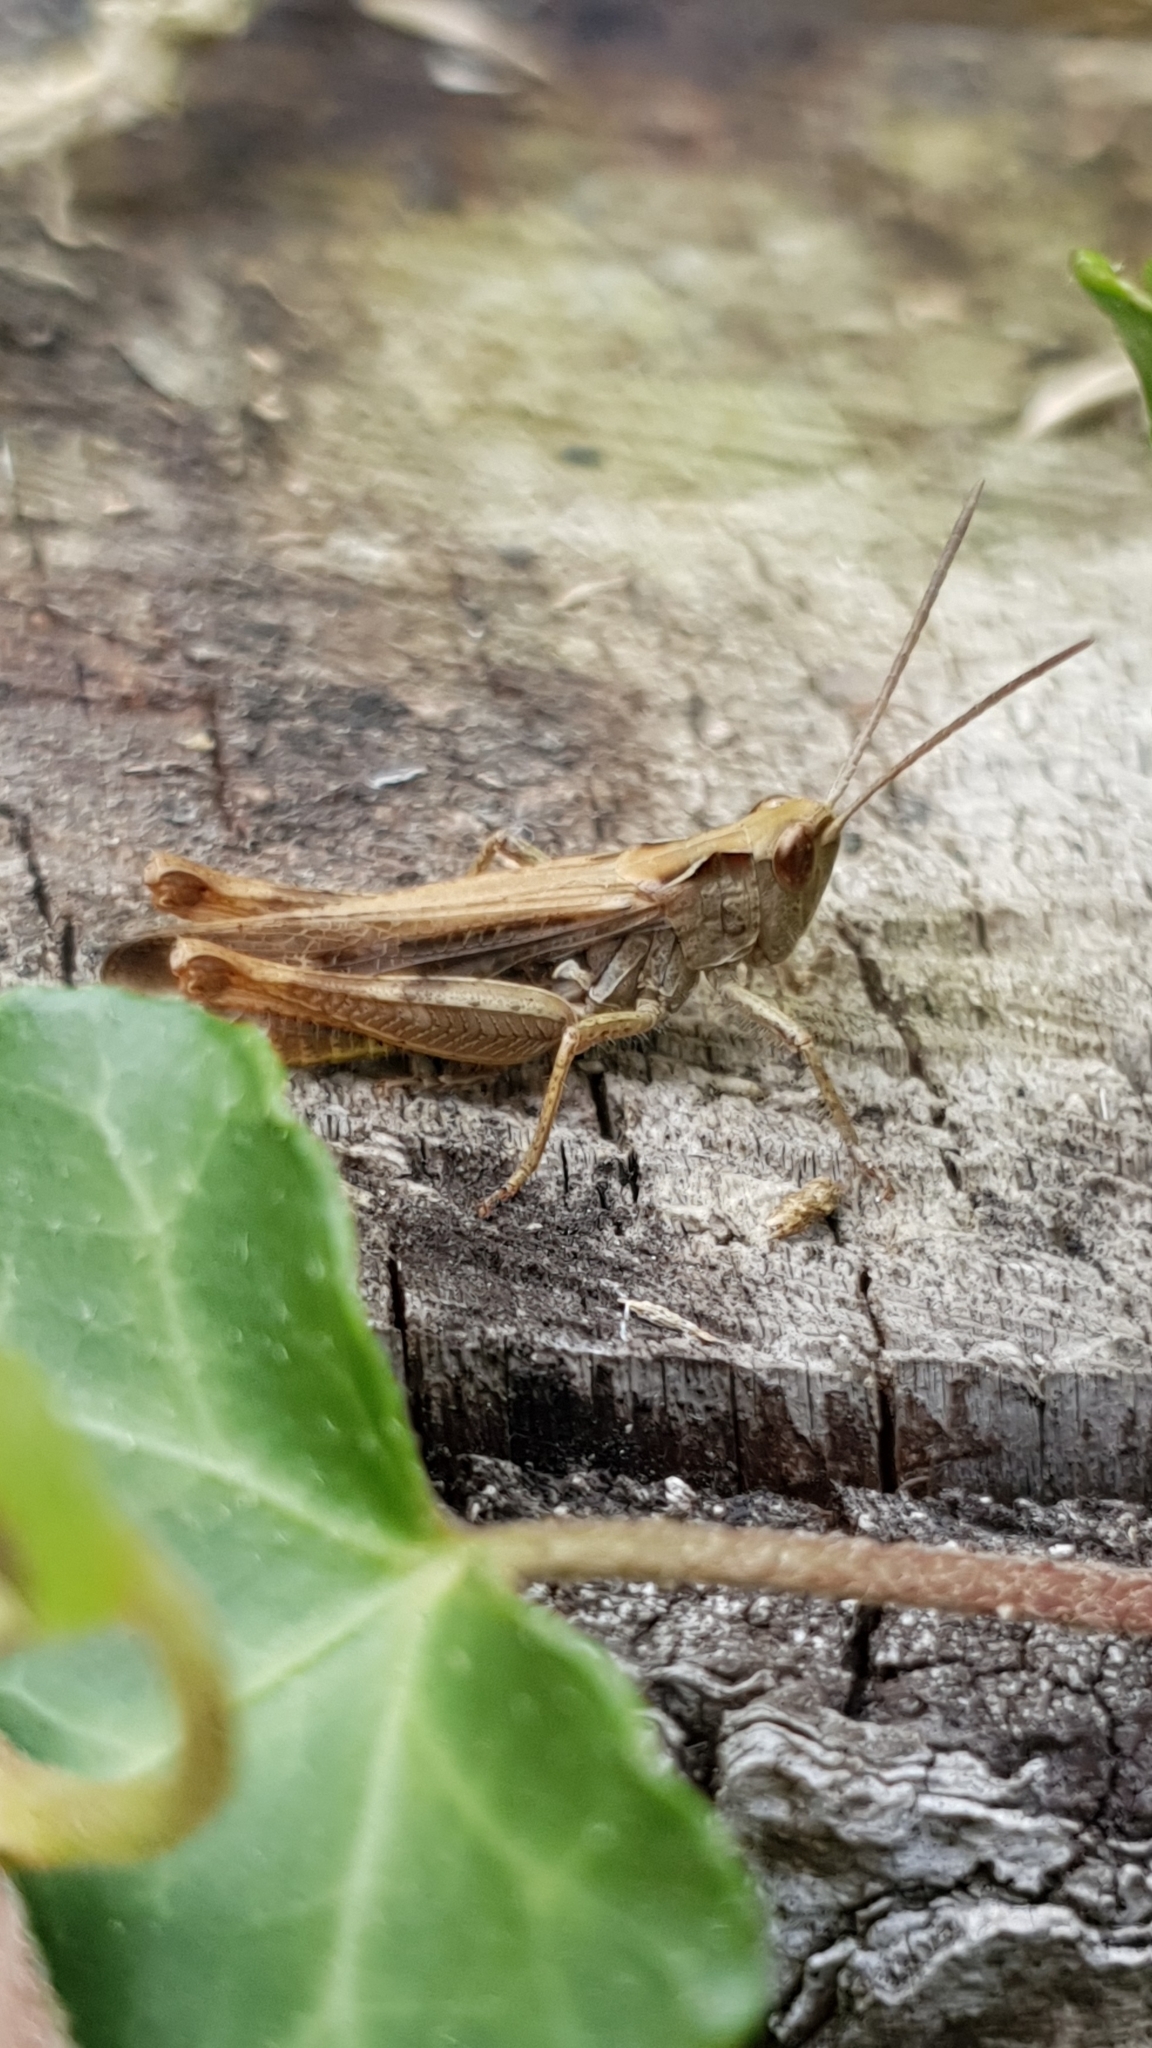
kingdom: Animalia
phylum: Arthropoda
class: Insecta
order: Orthoptera
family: Acrididae
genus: Chorthippus
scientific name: Chorthippus biguttulus
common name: Bow-winged grasshopper
